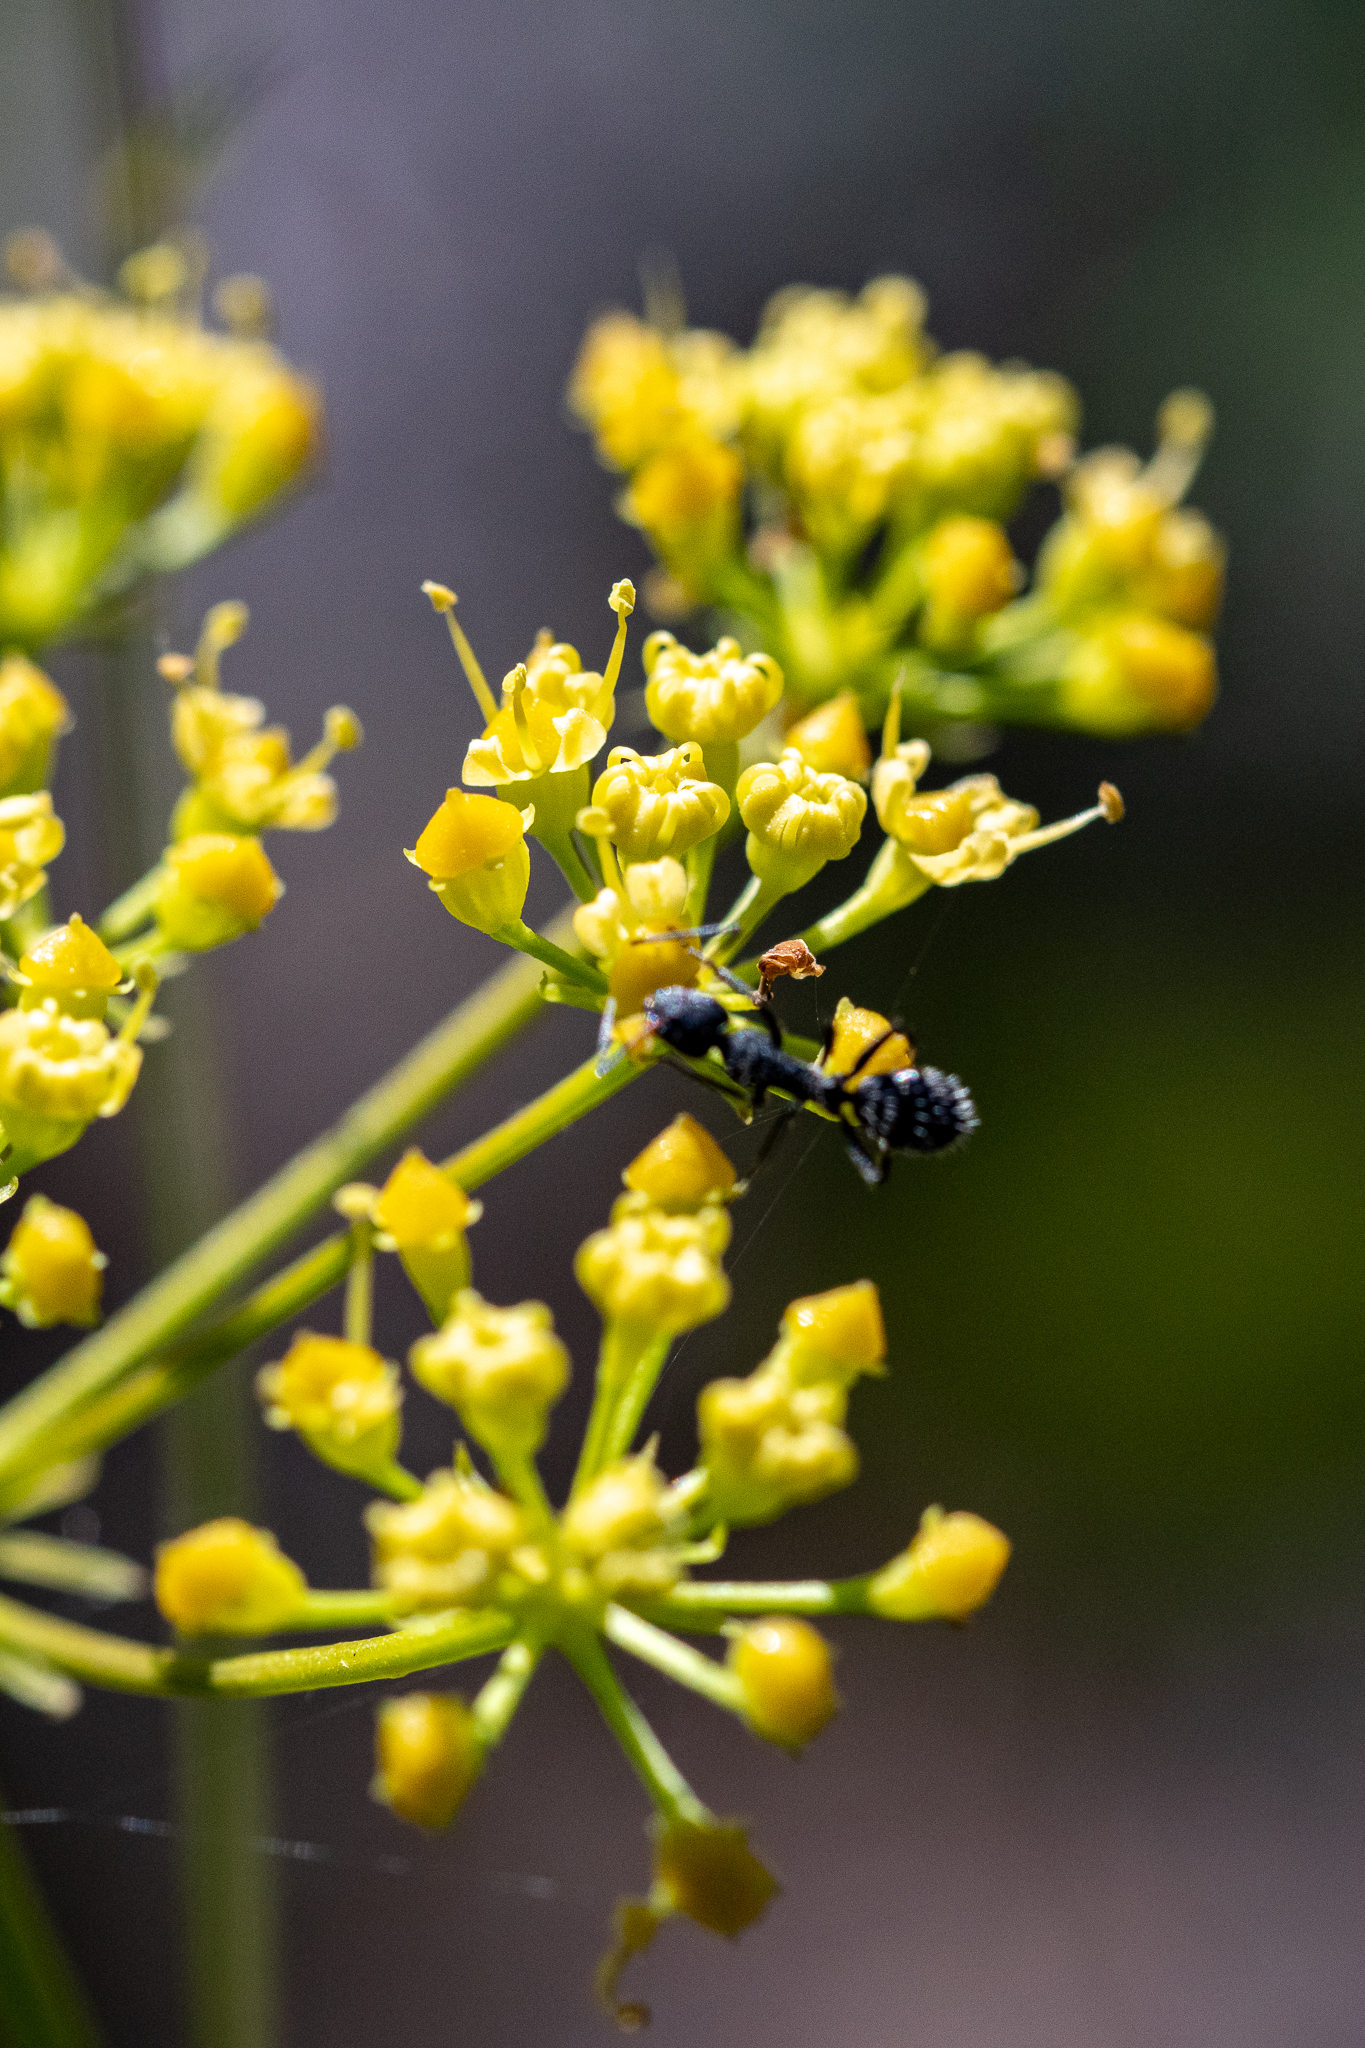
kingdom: Plantae
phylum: Tracheophyta
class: Magnoliopsida
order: Apiales
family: Apiaceae
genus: Glia
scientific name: Glia prolifera
